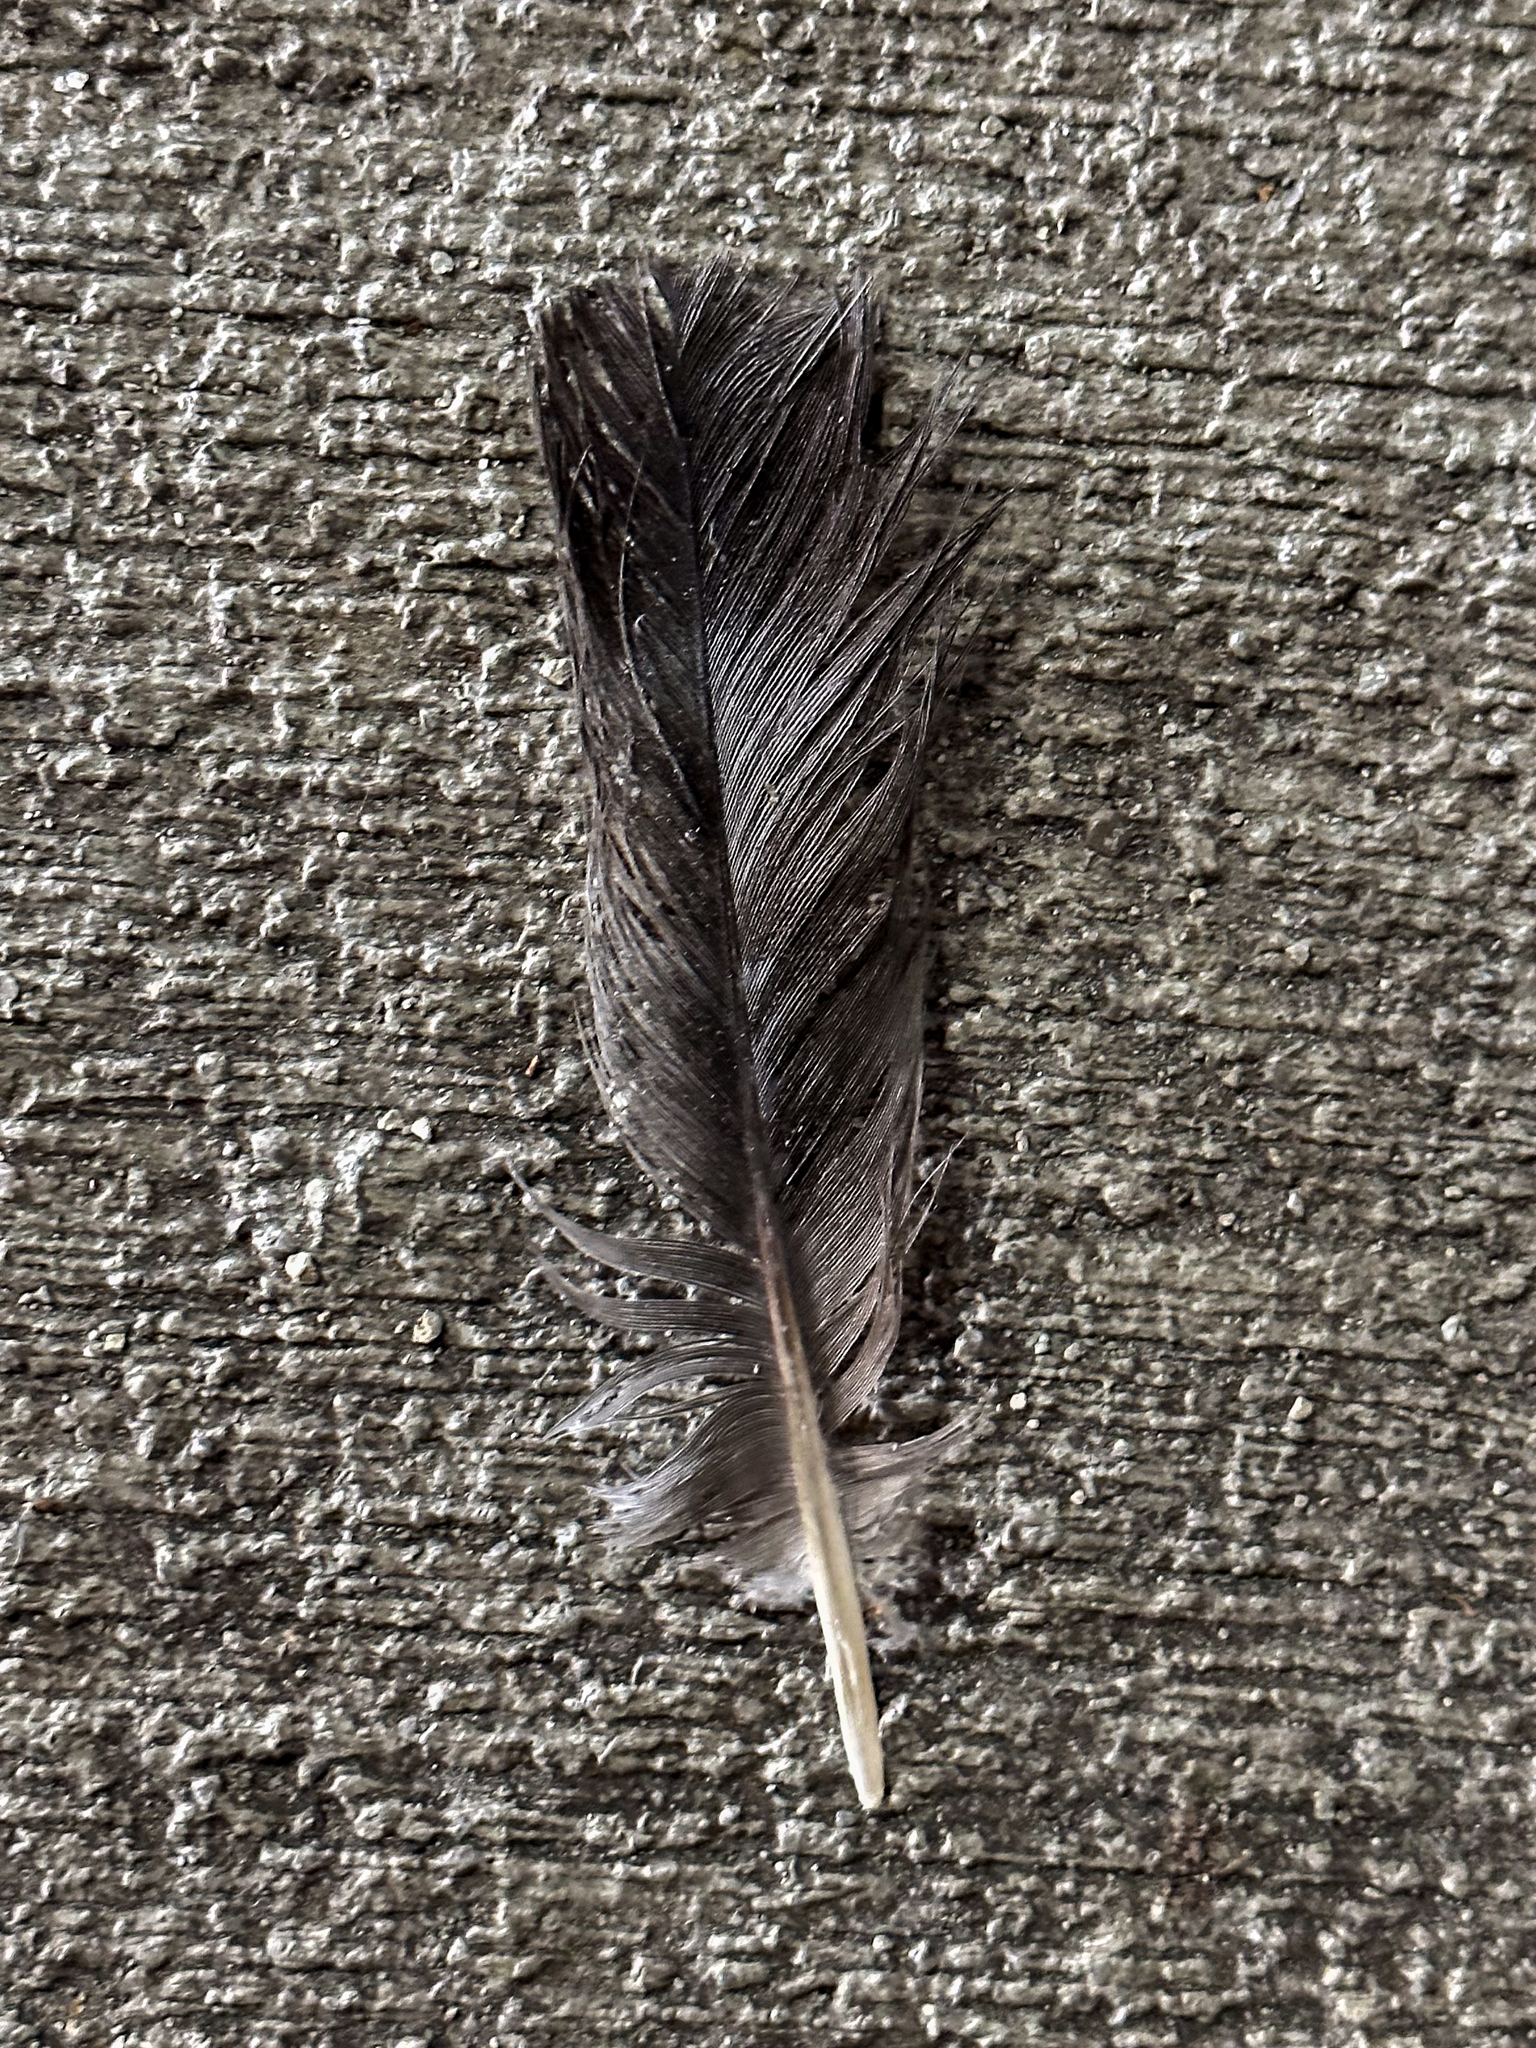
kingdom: Animalia
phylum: Chordata
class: Aves
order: Columbiformes
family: Columbidae
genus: Columba
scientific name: Columba livia
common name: Rock pigeon
